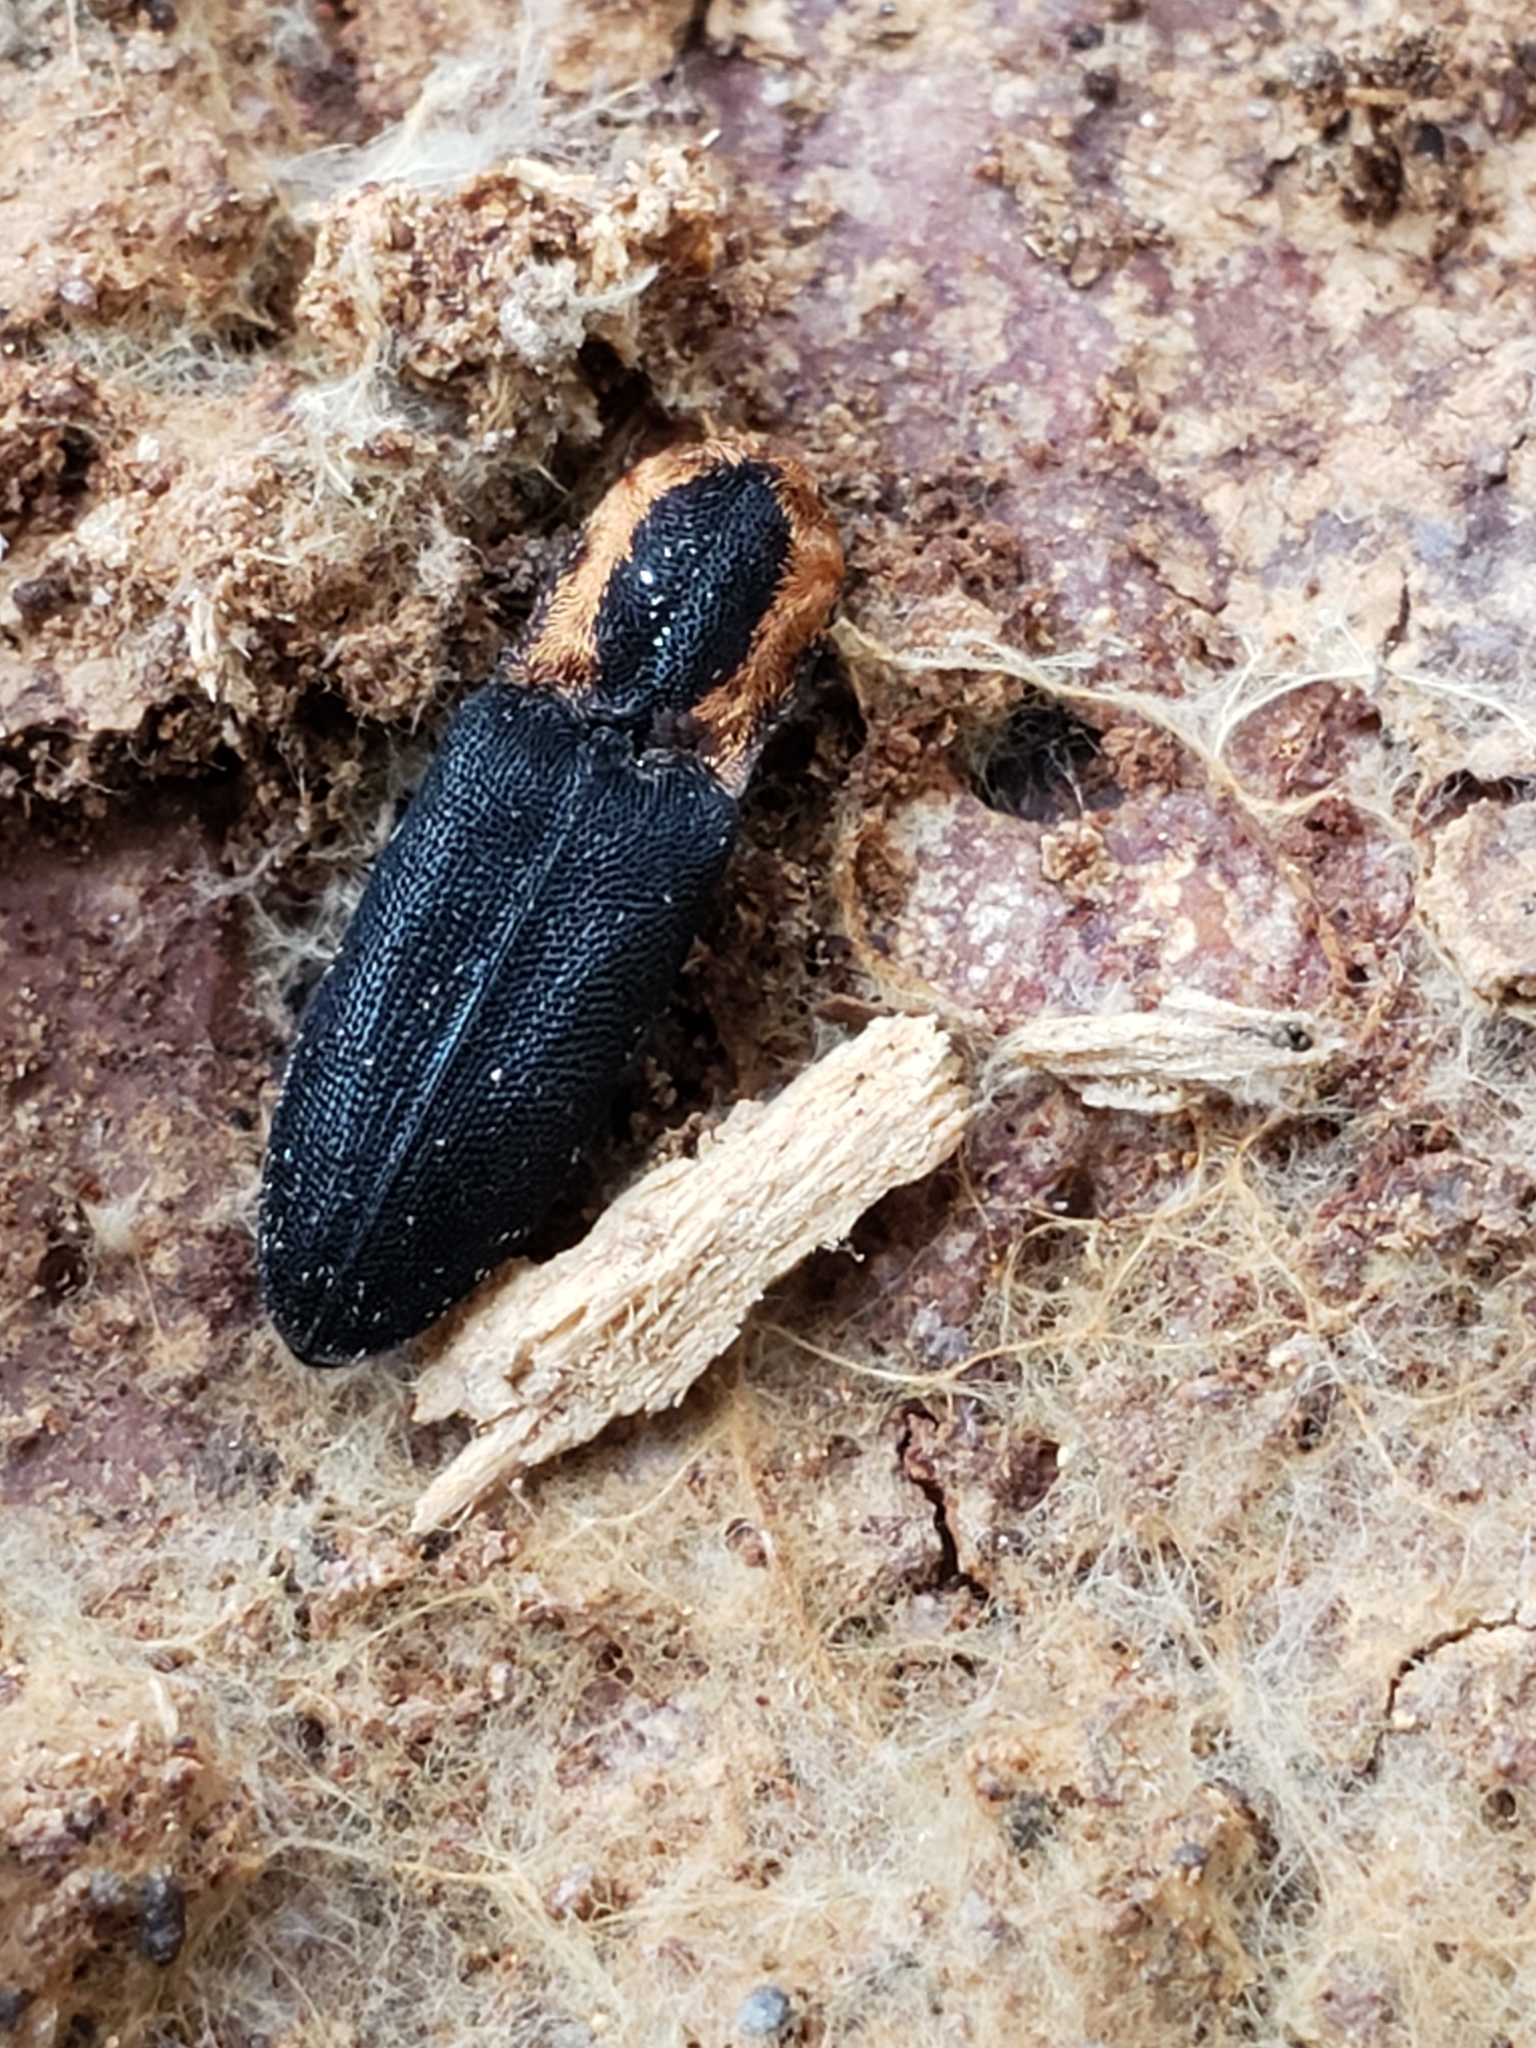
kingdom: Animalia
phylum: Arthropoda
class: Insecta
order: Coleoptera
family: Elateridae
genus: Lacon
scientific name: Lacon discoideus
